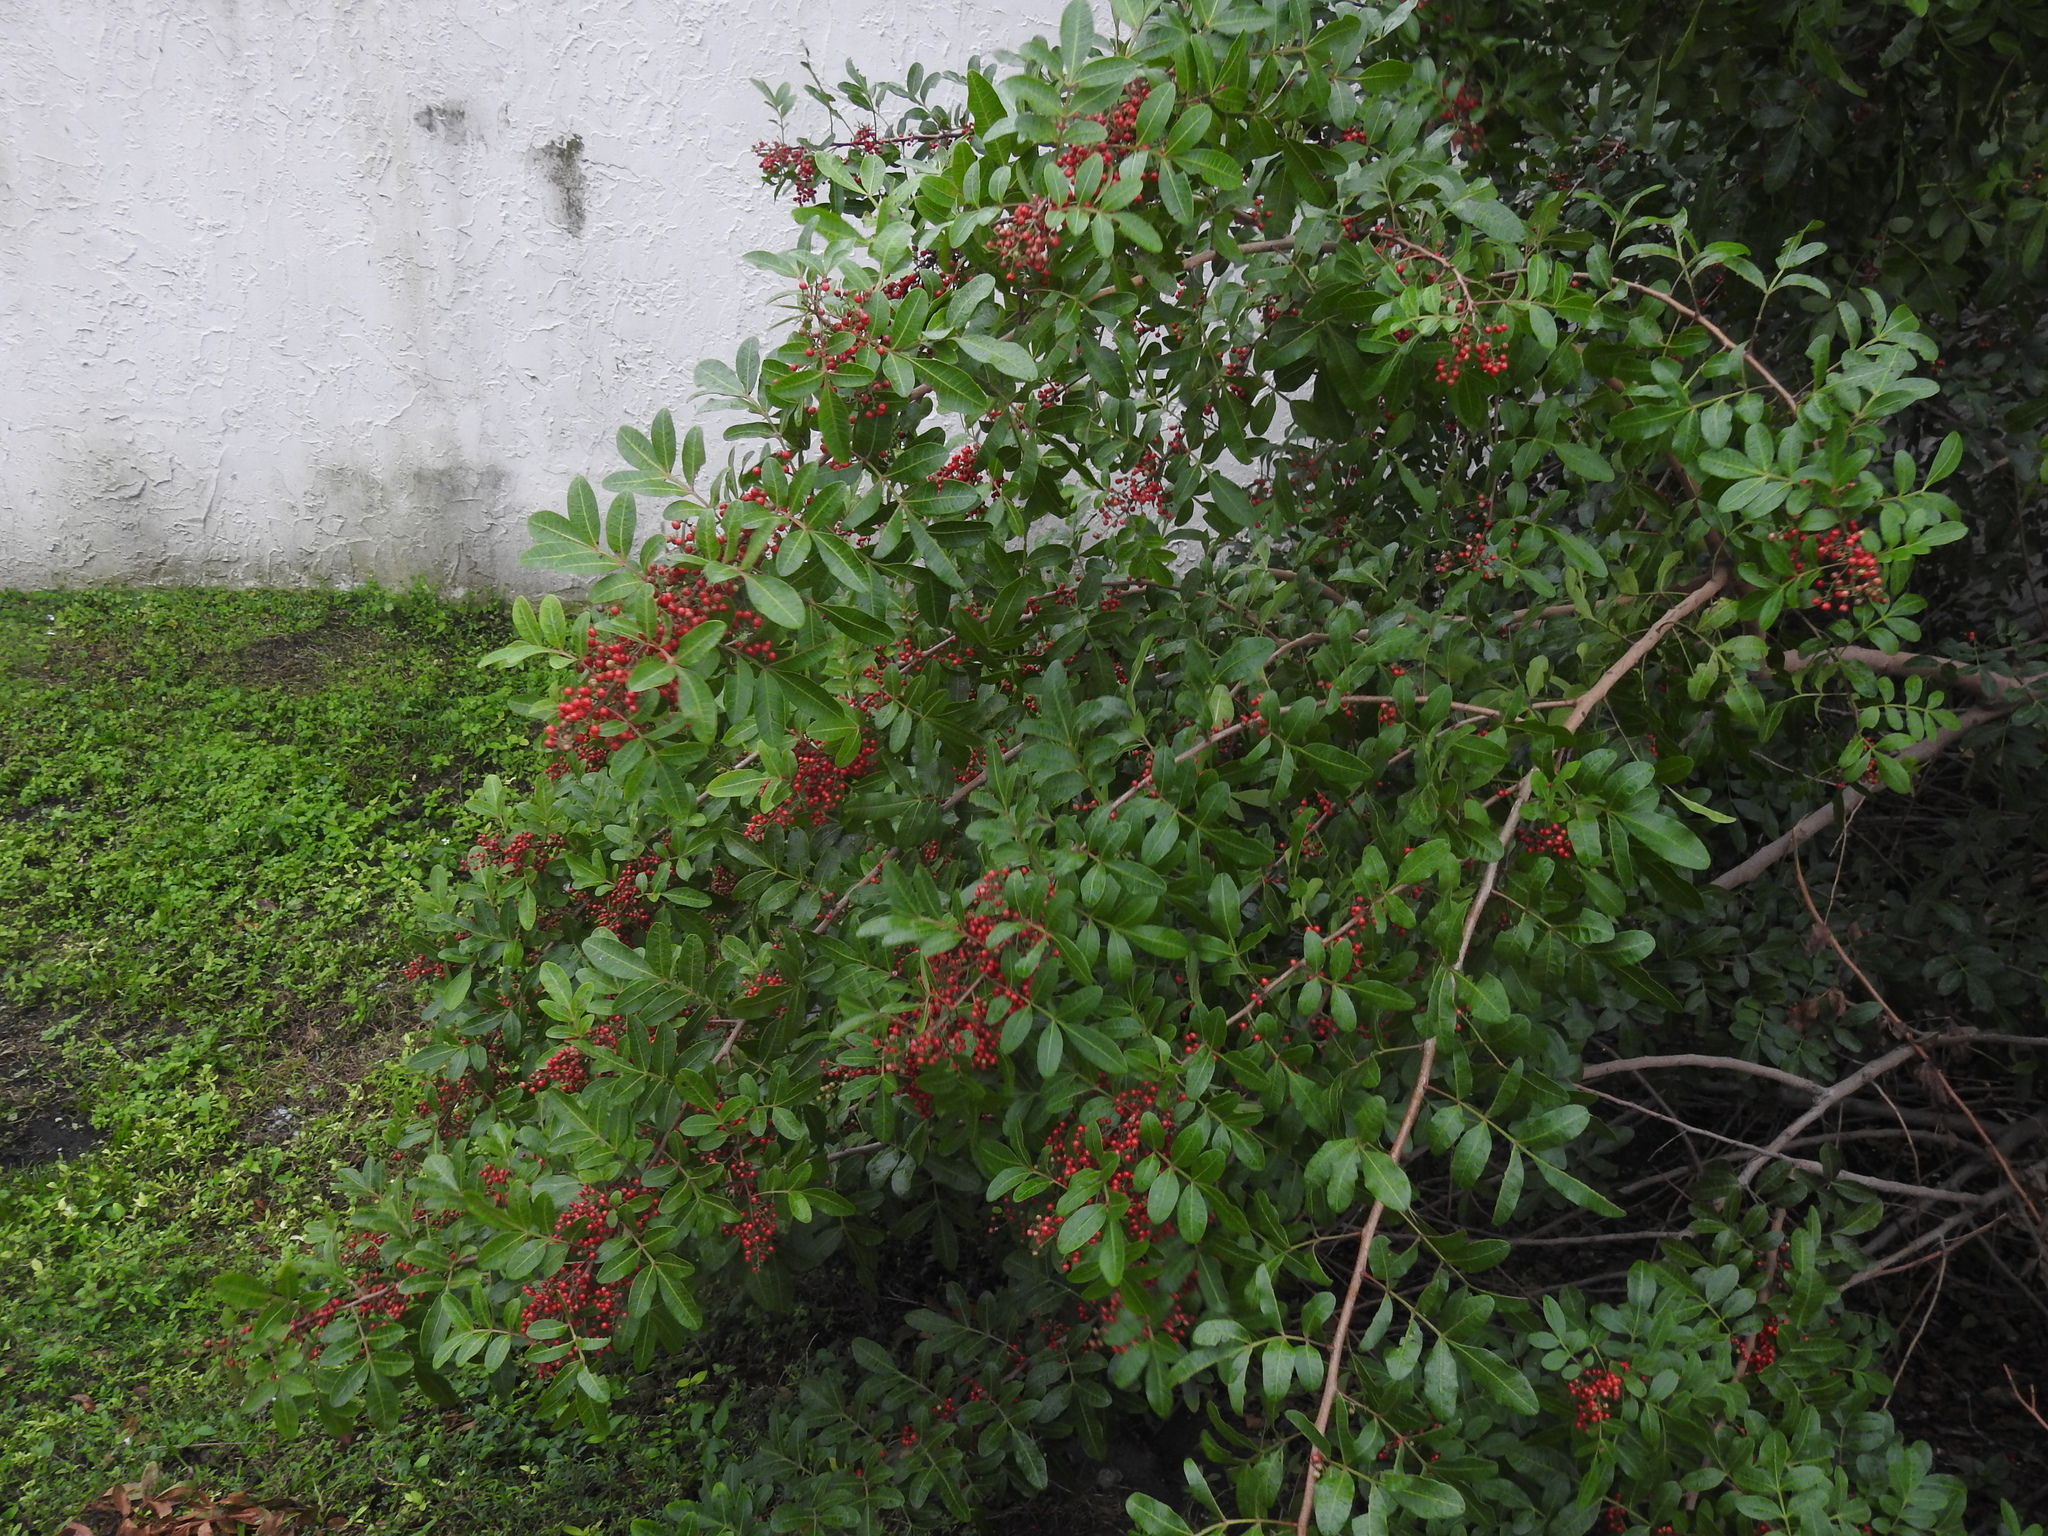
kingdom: Plantae
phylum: Tracheophyta
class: Magnoliopsida
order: Sapindales
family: Anacardiaceae
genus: Schinus
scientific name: Schinus terebinthifolia
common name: Brazilian peppertree
